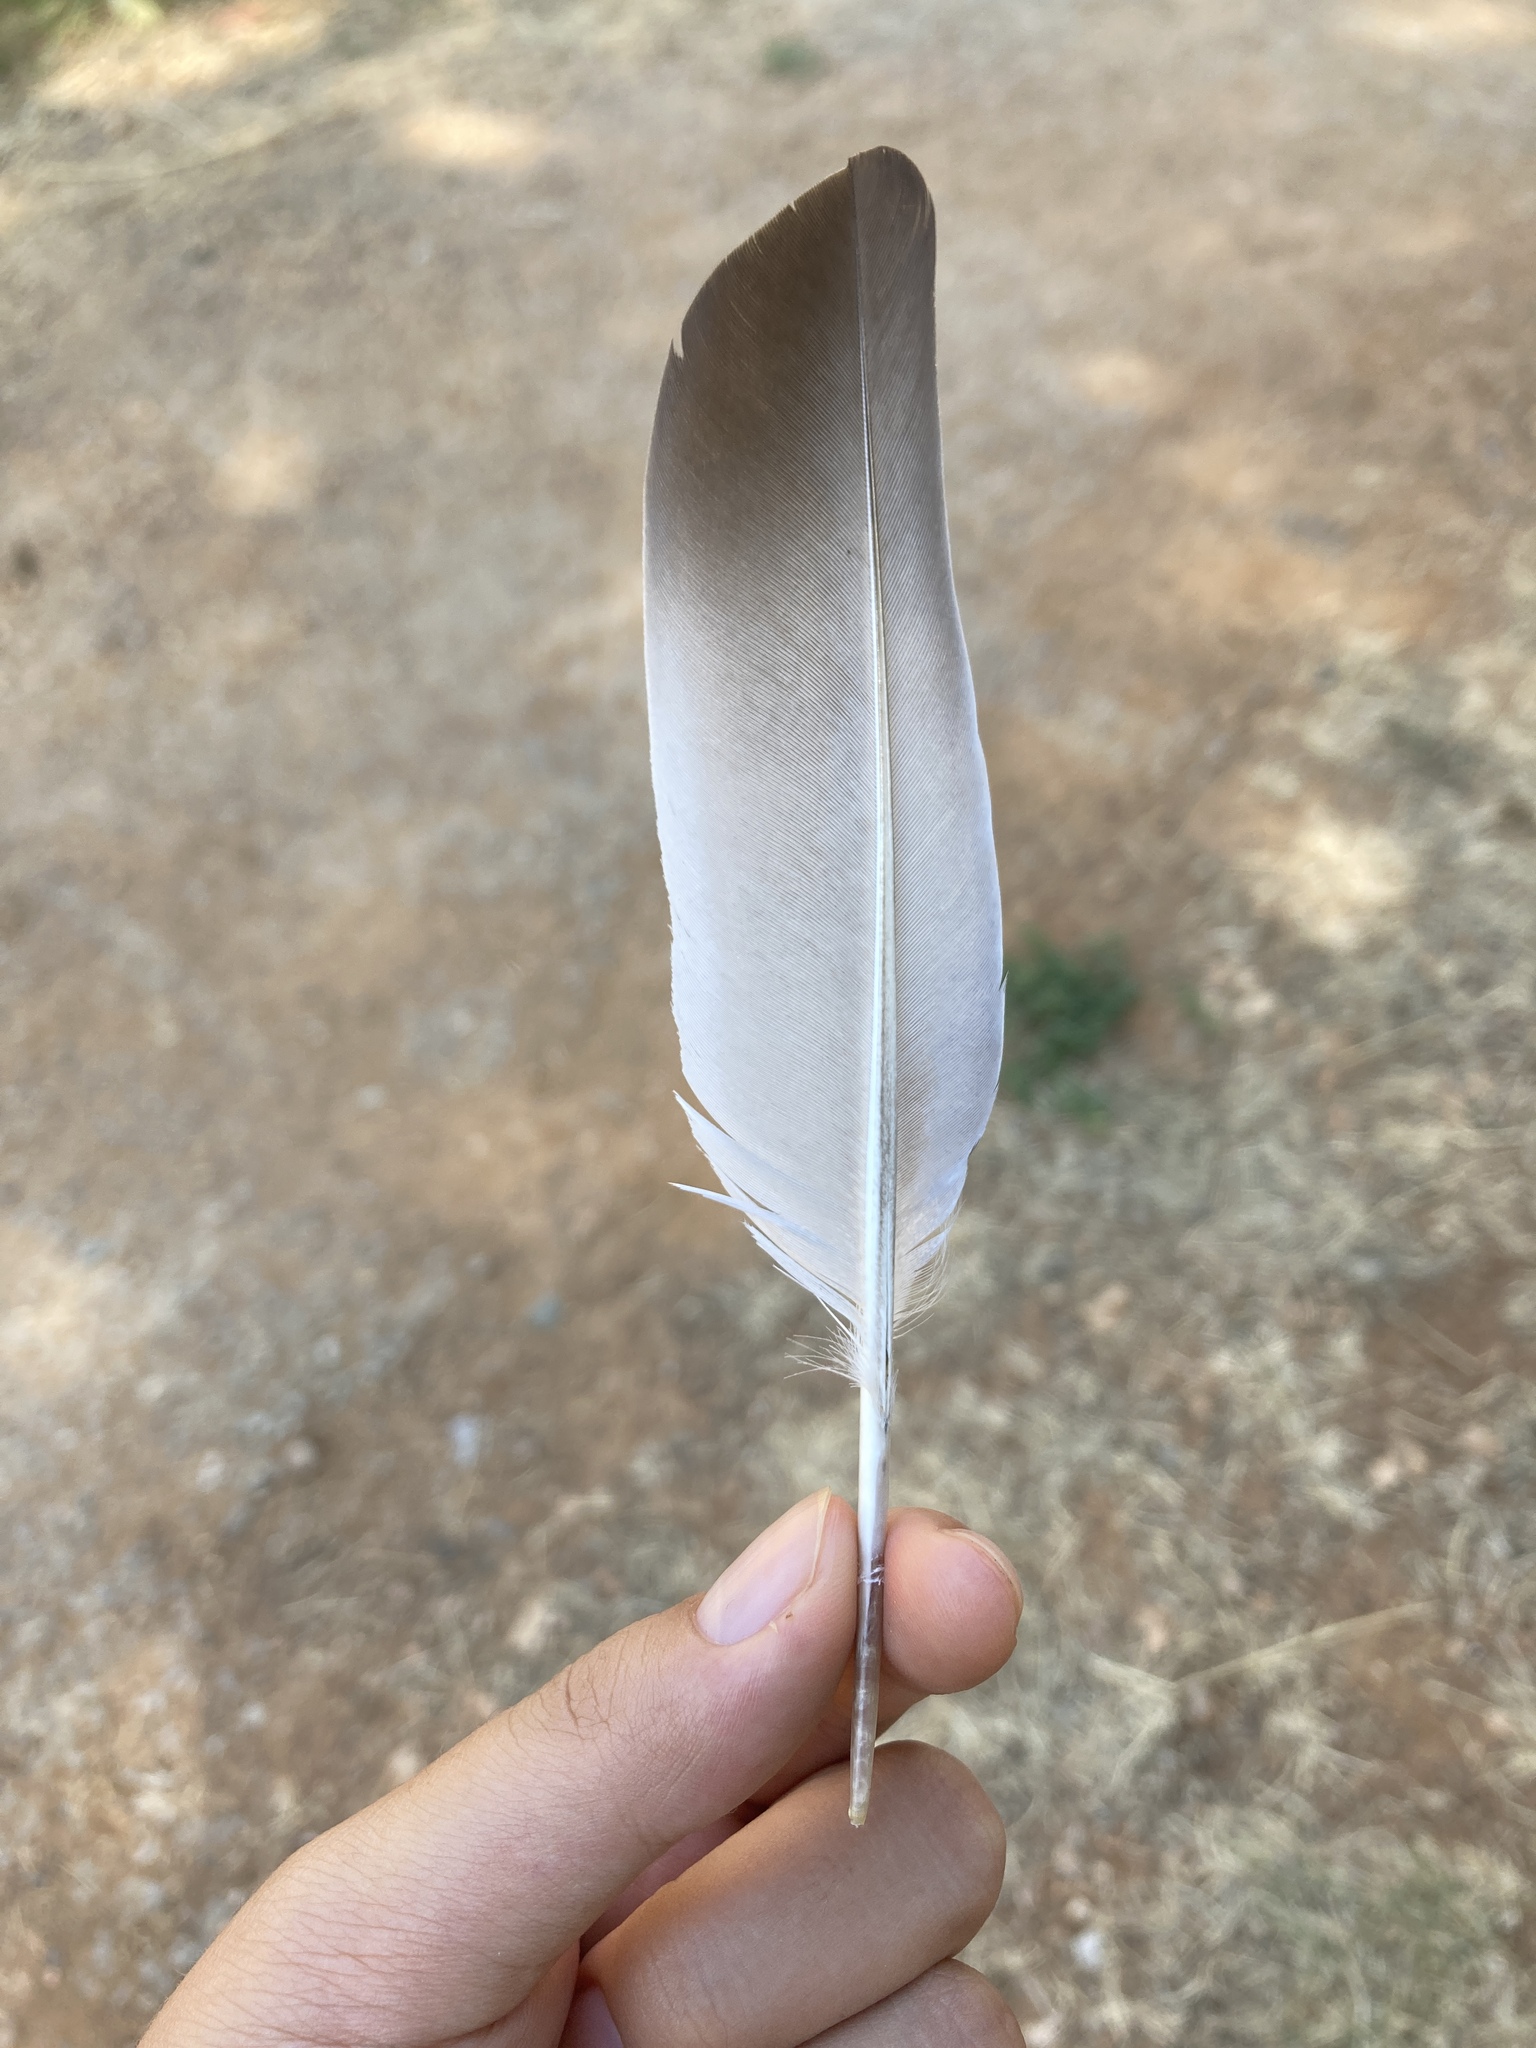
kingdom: Animalia
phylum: Chordata
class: Aves
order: Columbiformes
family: Columbidae
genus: Columba
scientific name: Columba livia
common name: Rock pigeon
